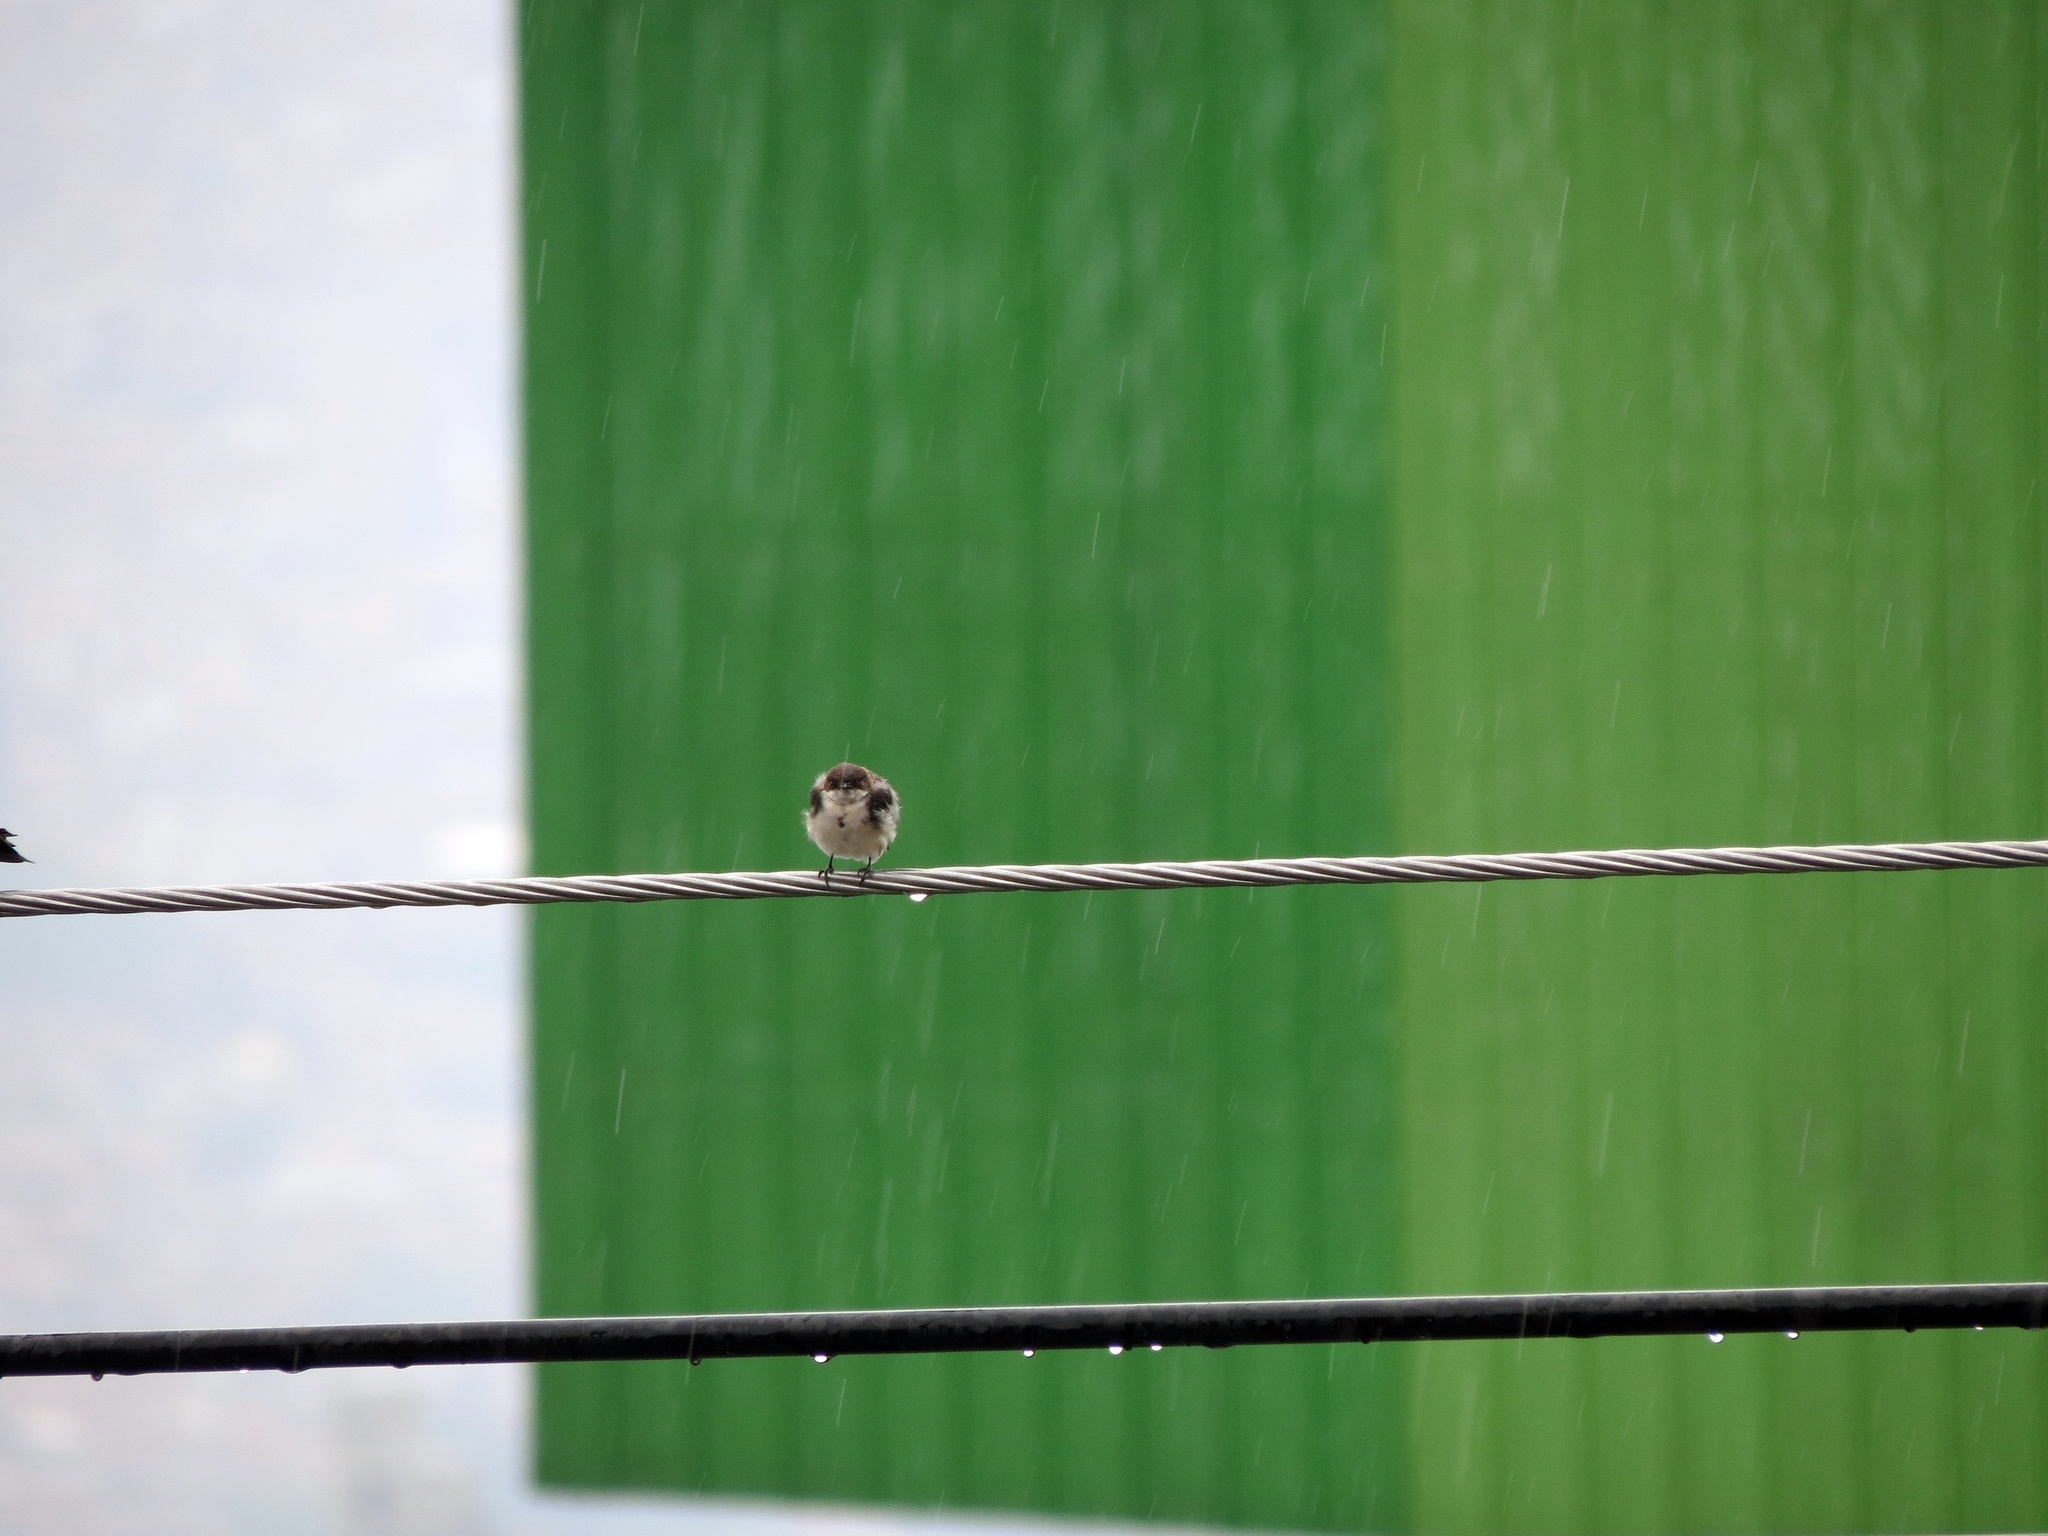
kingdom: Animalia
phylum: Chordata
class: Aves
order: Passeriformes
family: Hirundinidae
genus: Notiochelidon
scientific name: Notiochelidon cyanoleuca
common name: Blue-and-white swallow
